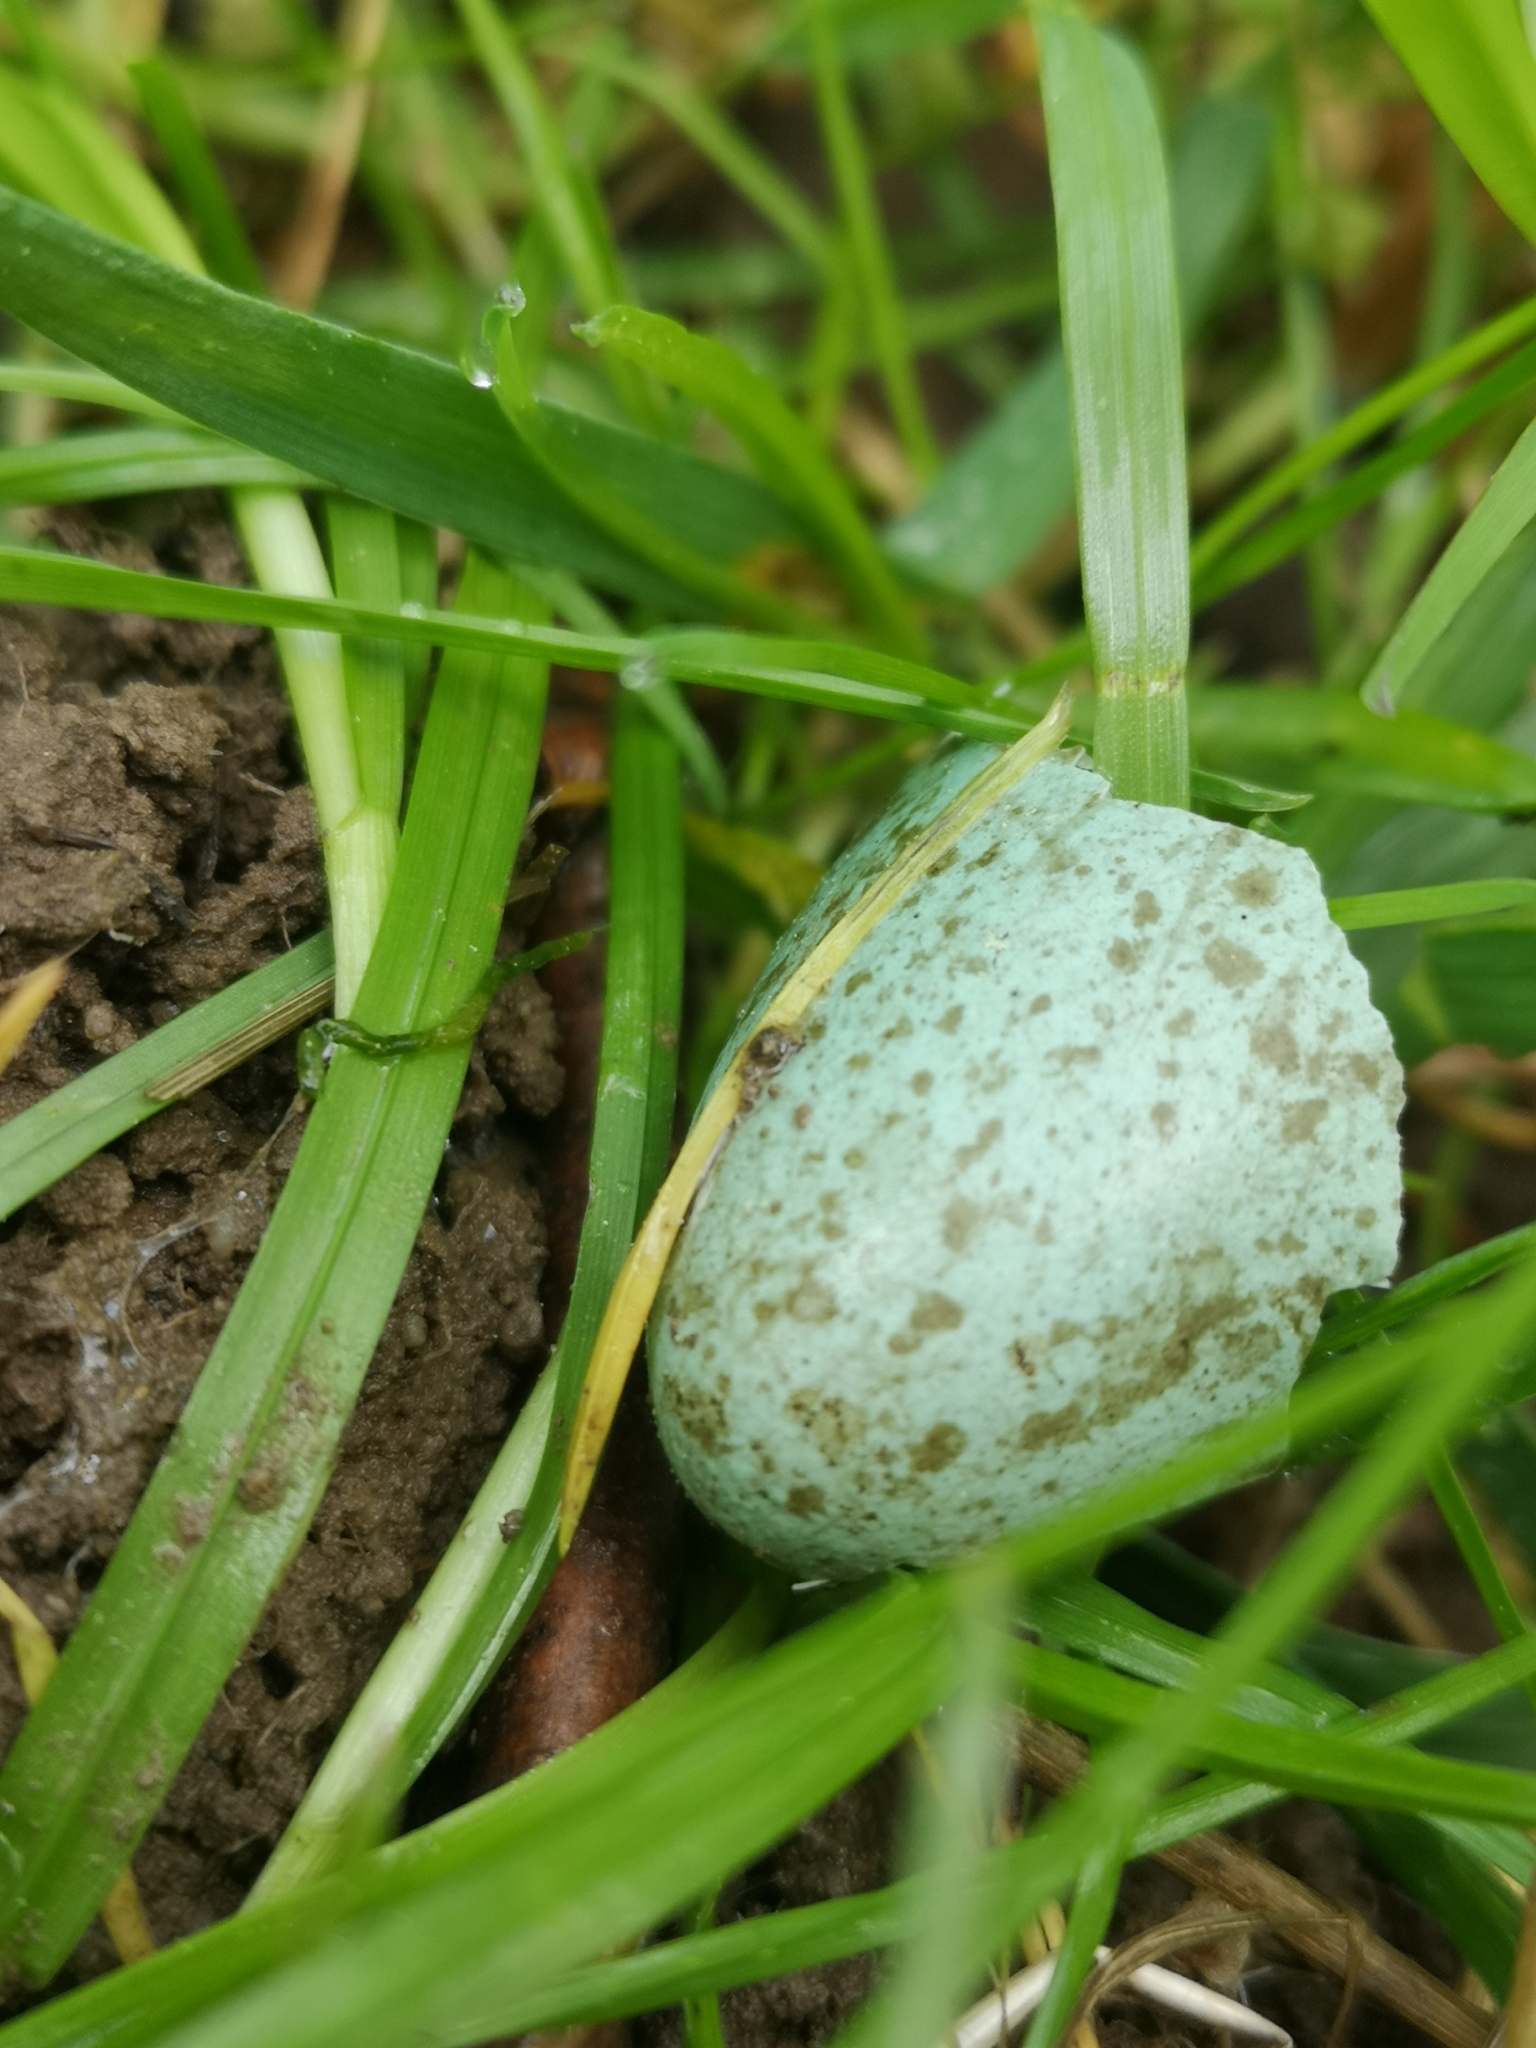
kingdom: Animalia
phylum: Chordata
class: Aves
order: Passeriformes
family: Turdidae
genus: Turdus
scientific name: Turdus merula
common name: Common blackbird
